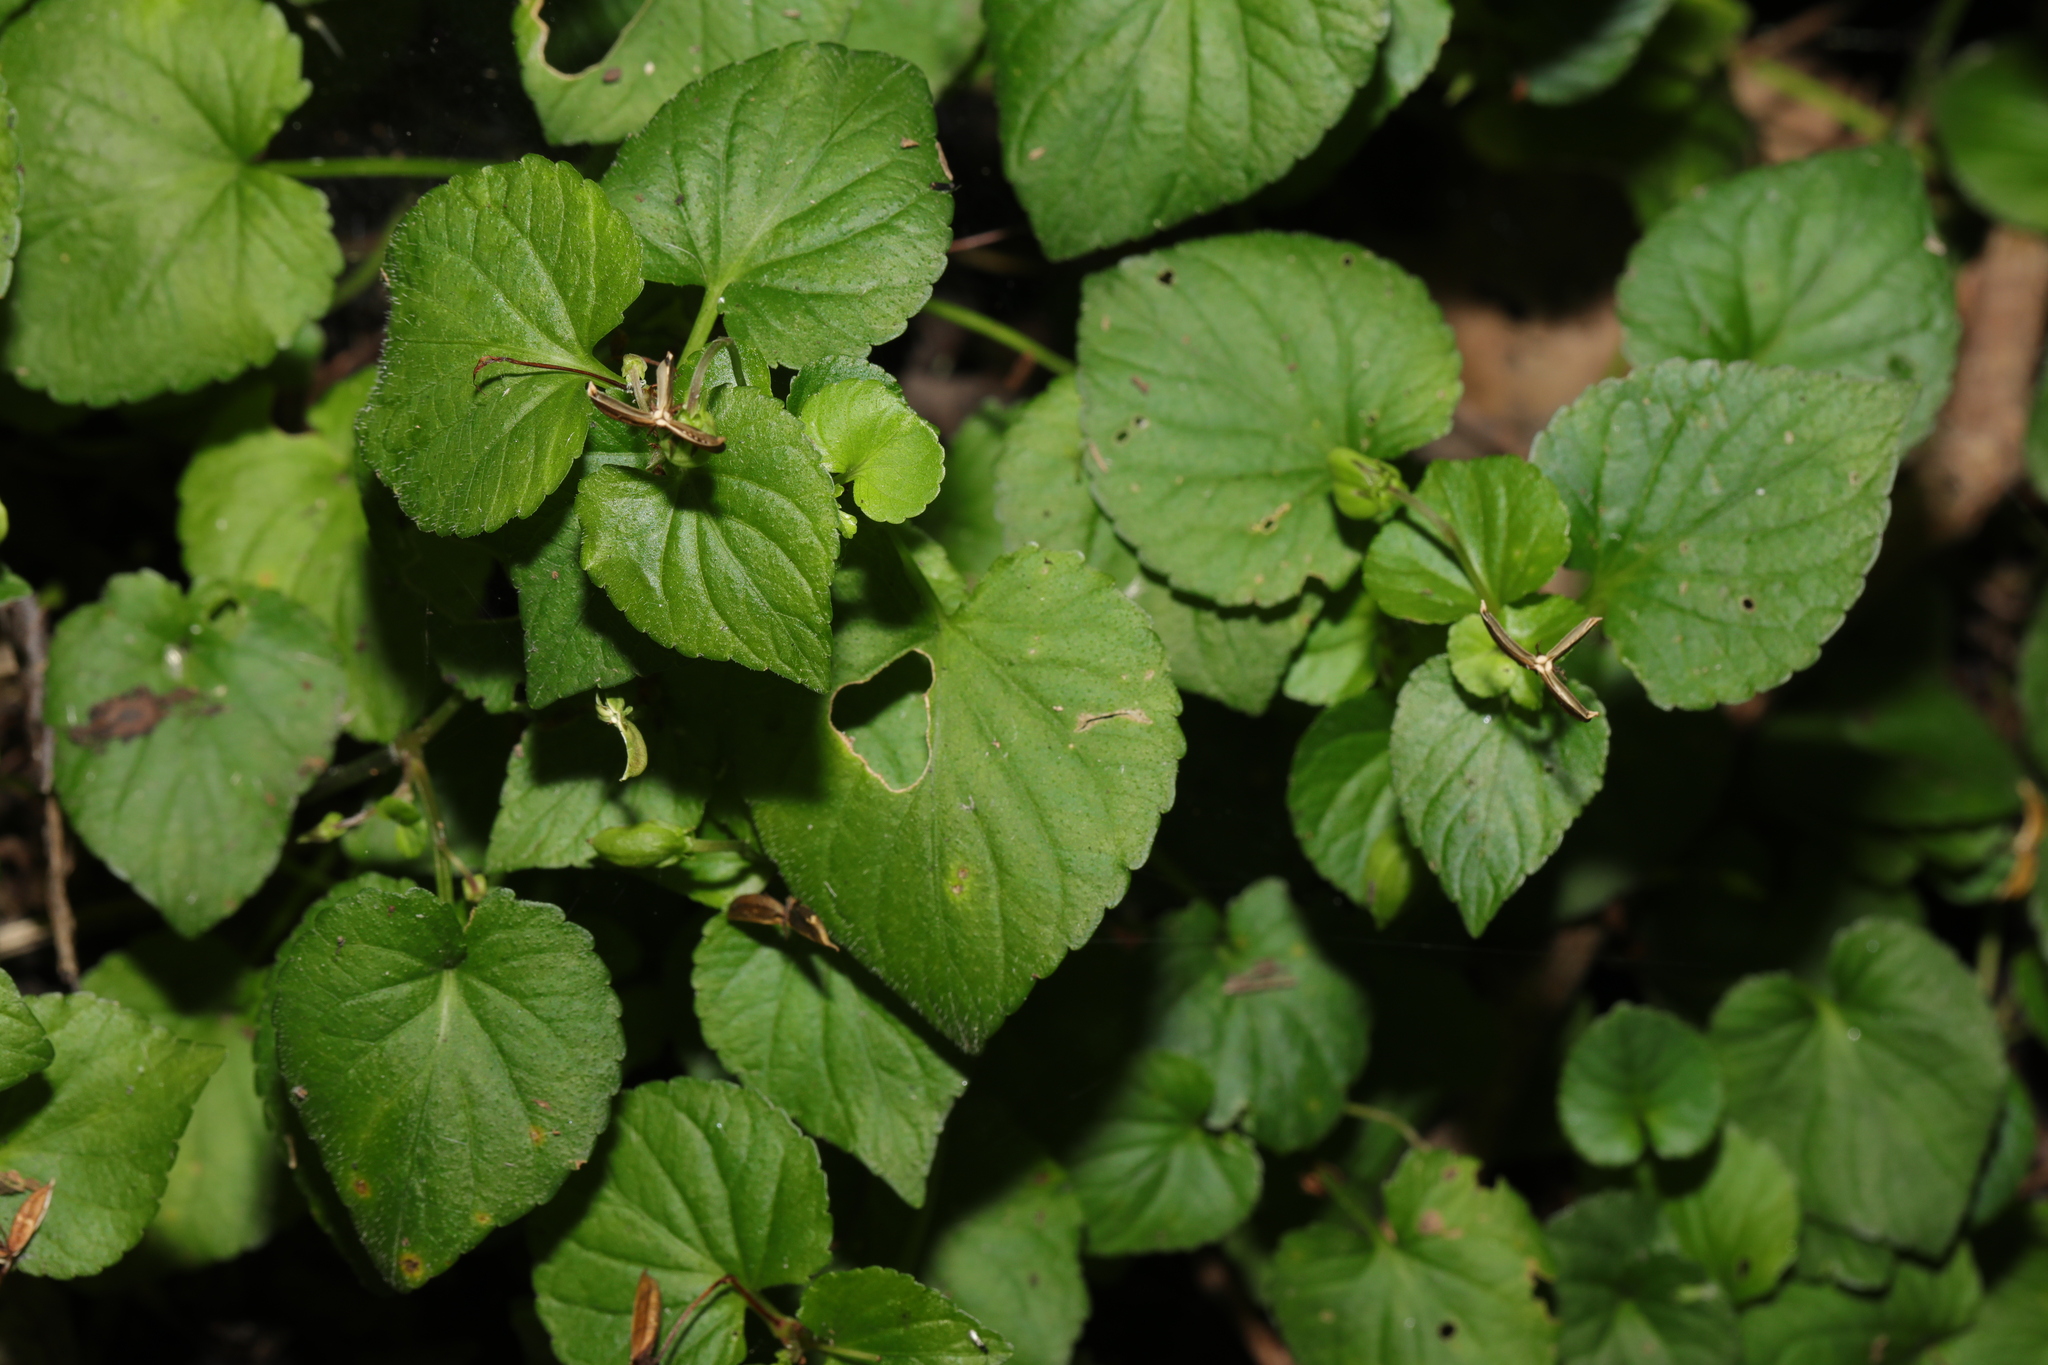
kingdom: Plantae
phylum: Tracheophyta
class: Magnoliopsida
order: Malpighiales
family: Violaceae
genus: Viola
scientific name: Viola riviniana
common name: Common dog-violet
